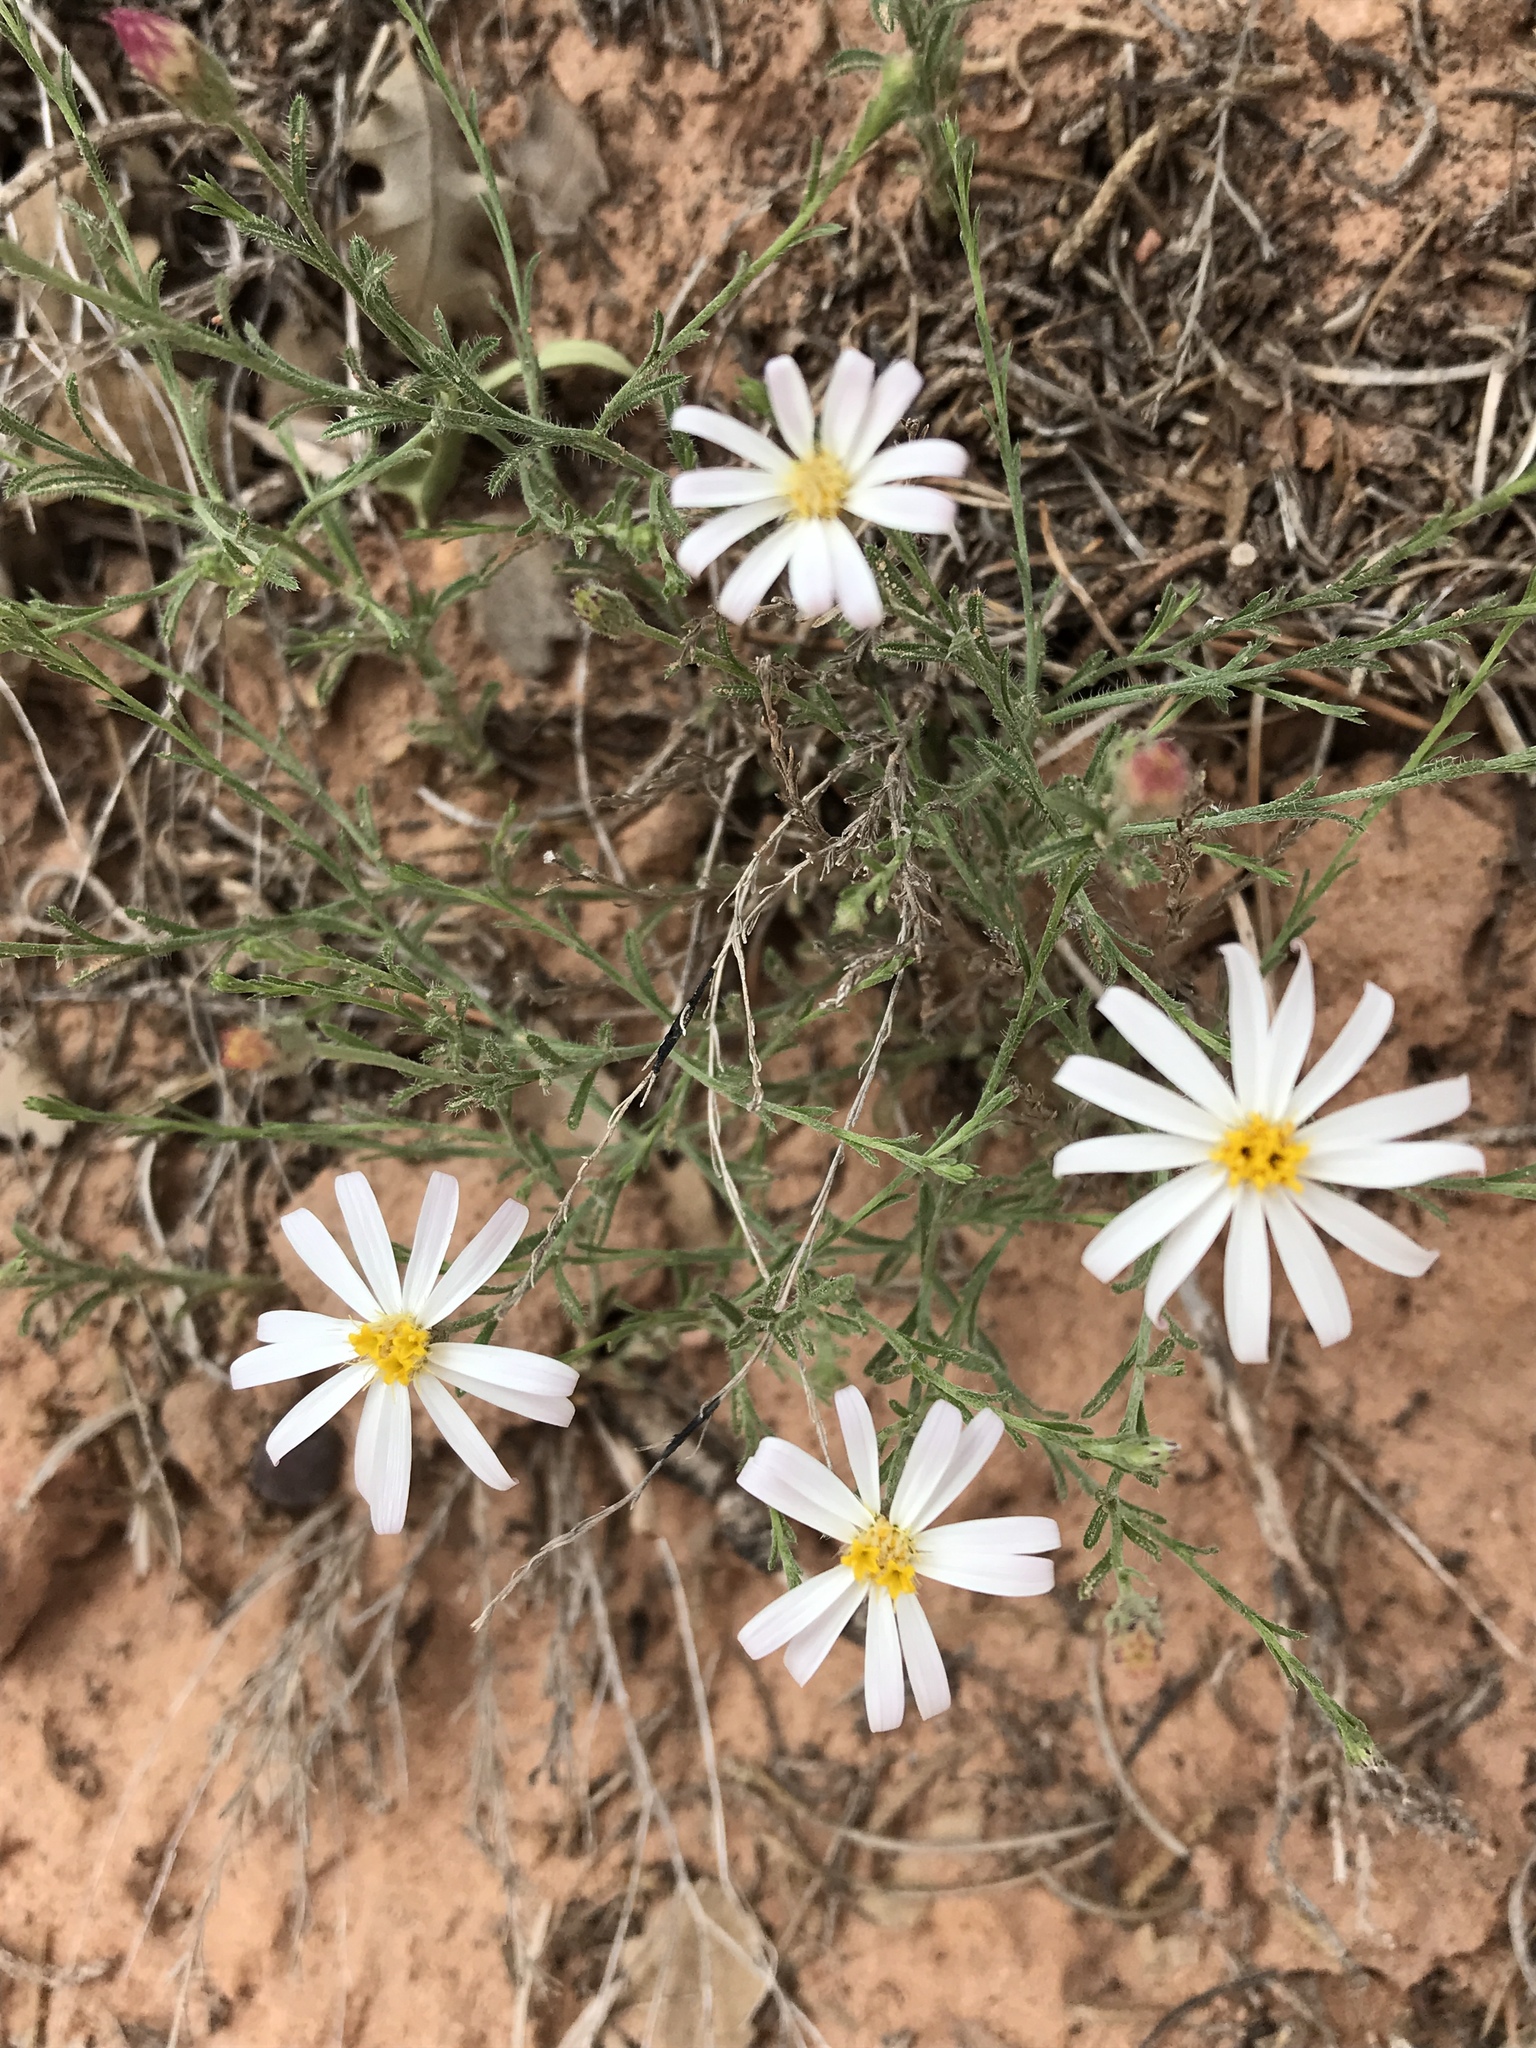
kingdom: Plantae
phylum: Tracheophyta
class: Magnoliopsida
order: Asterales
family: Asteraceae
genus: Chaetopappa
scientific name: Chaetopappa ericoides
